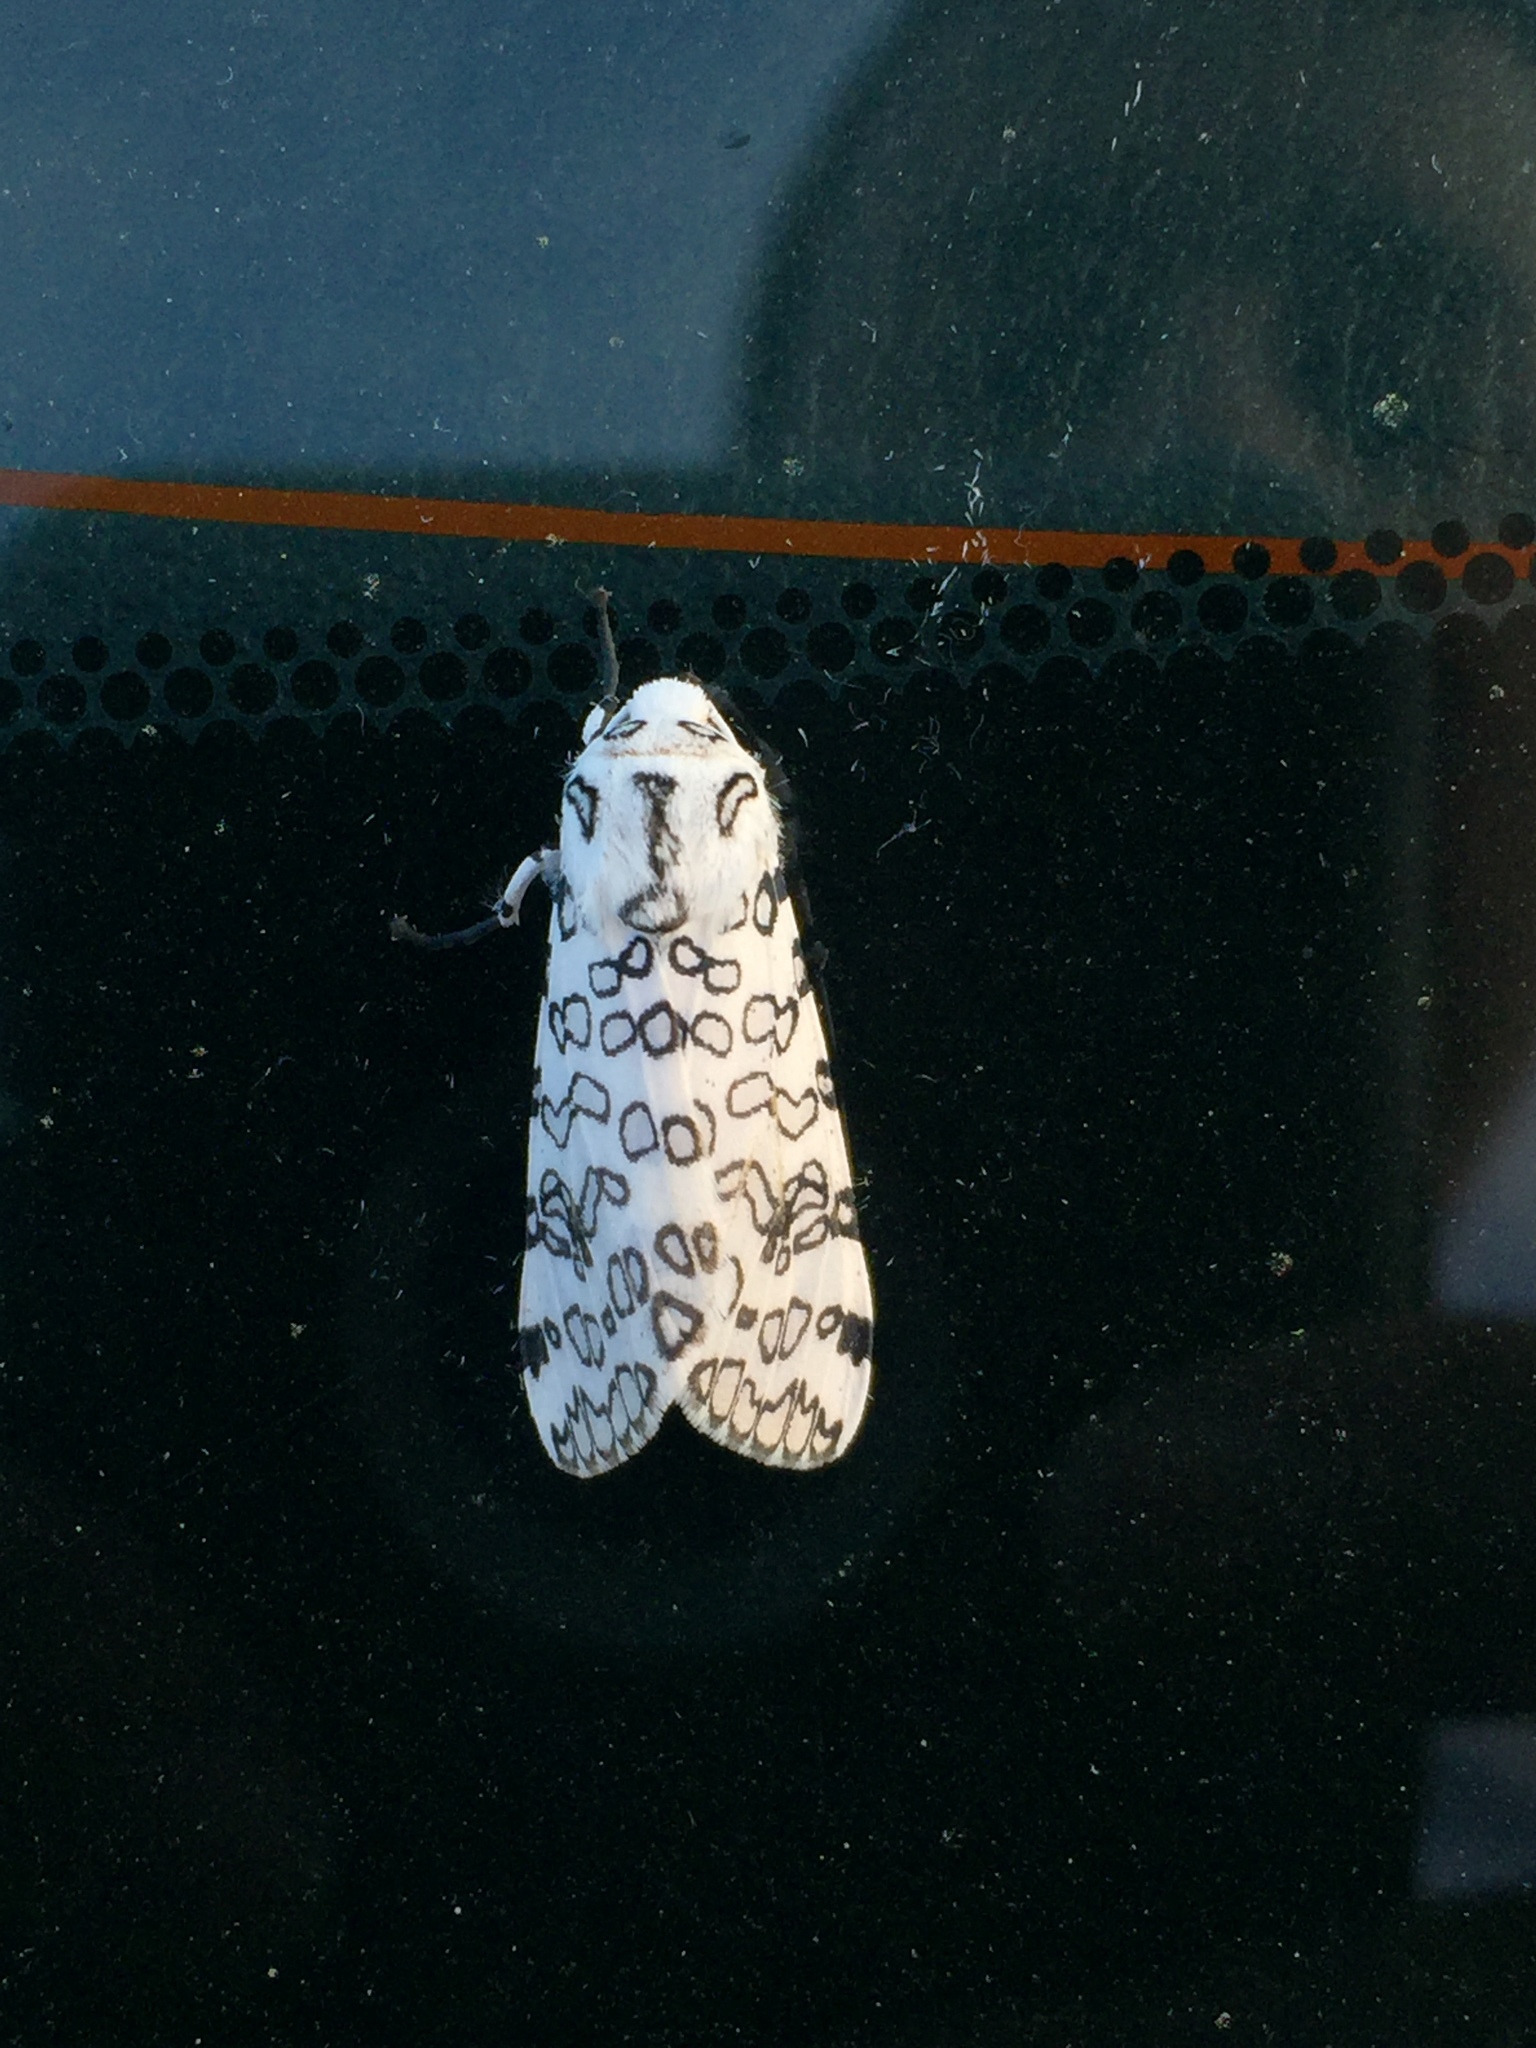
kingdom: Animalia
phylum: Arthropoda
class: Insecta
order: Lepidoptera
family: Erebidae
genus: Hypercompe
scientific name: Hypercompe oslari
